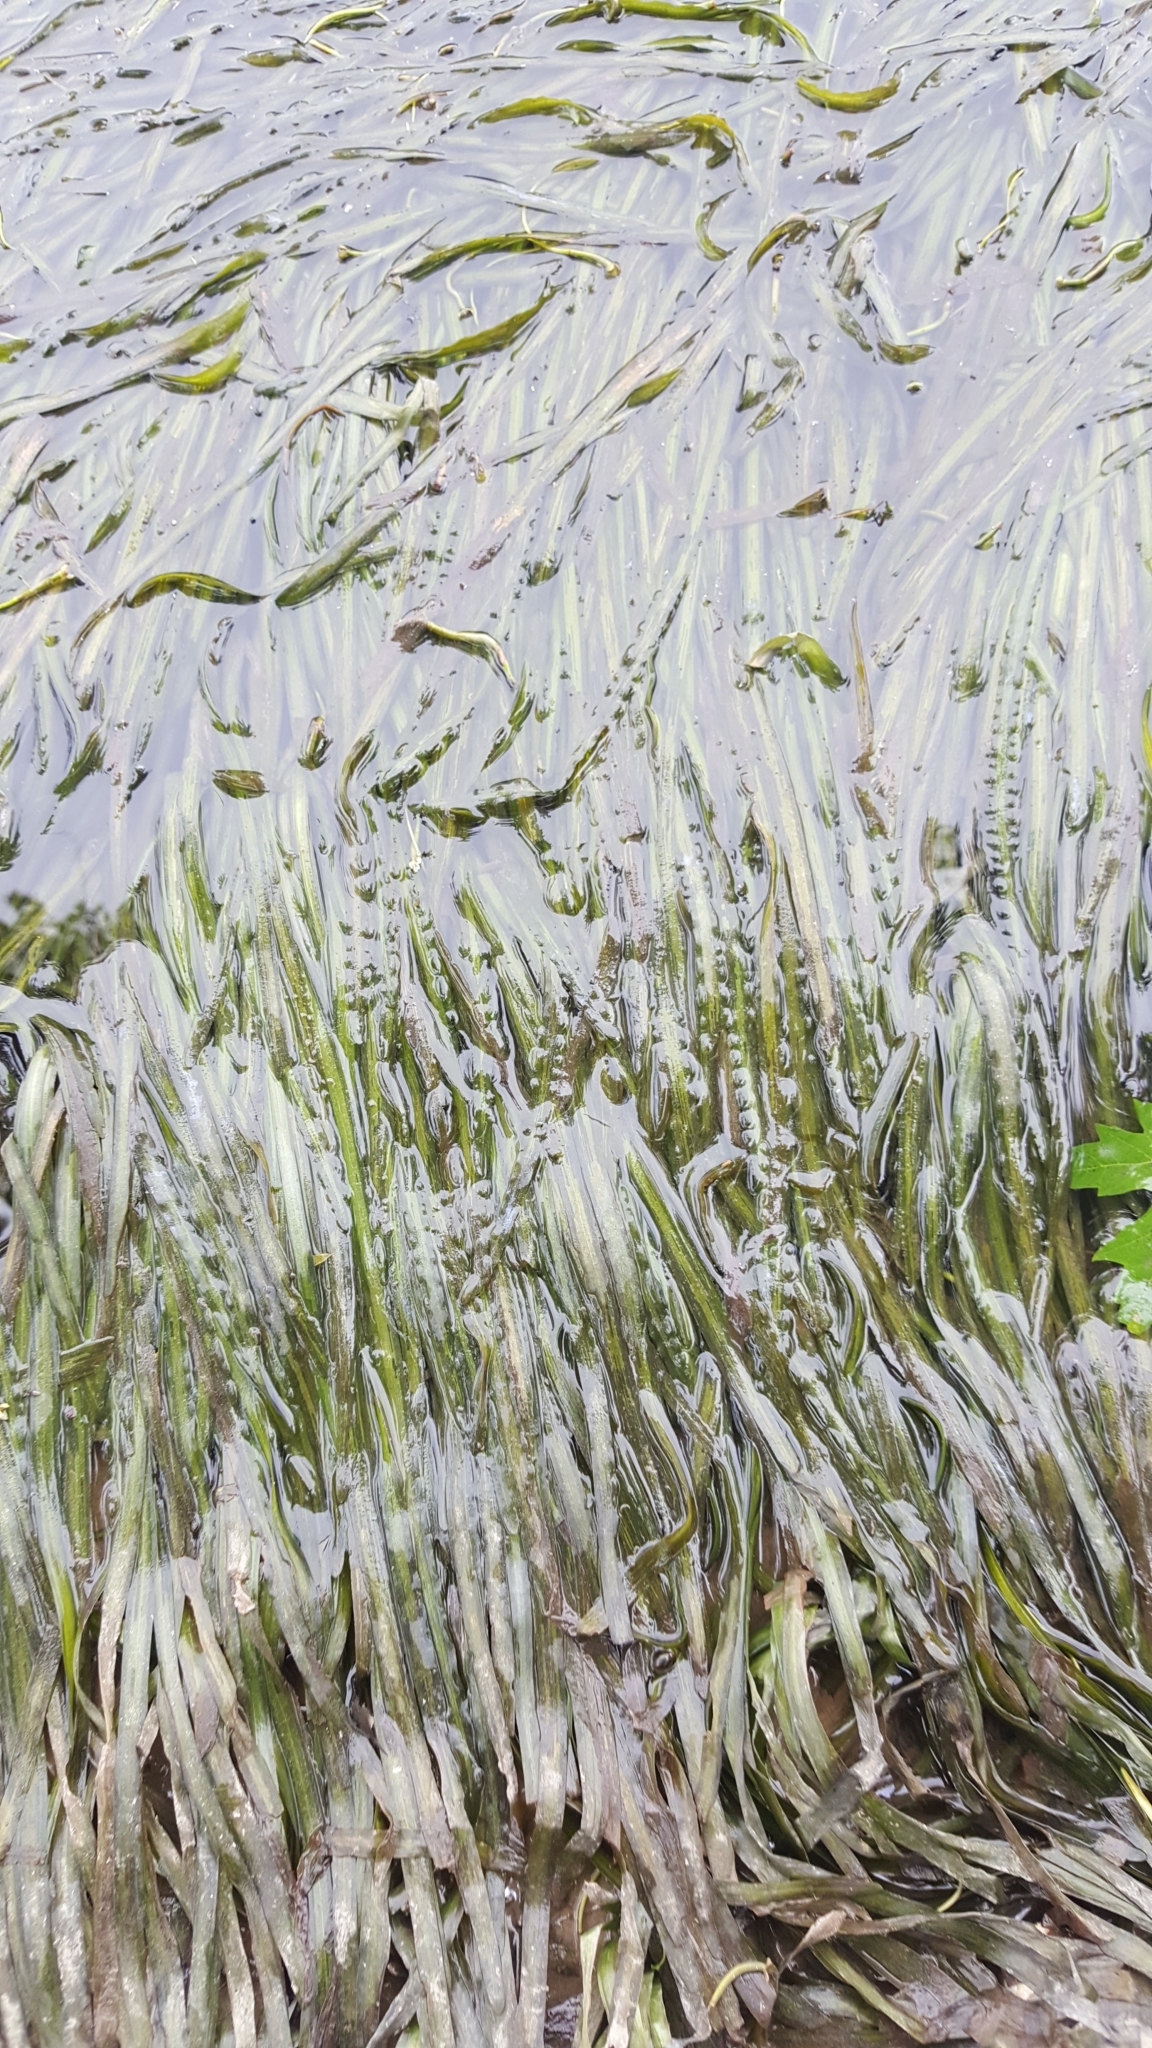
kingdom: Plantae
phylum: Tracheophyta
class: Liliopsida
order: Alismatales
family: Hydrocharitaceae
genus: Vallisneria
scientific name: Vallisneria americana
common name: American eelgrass
